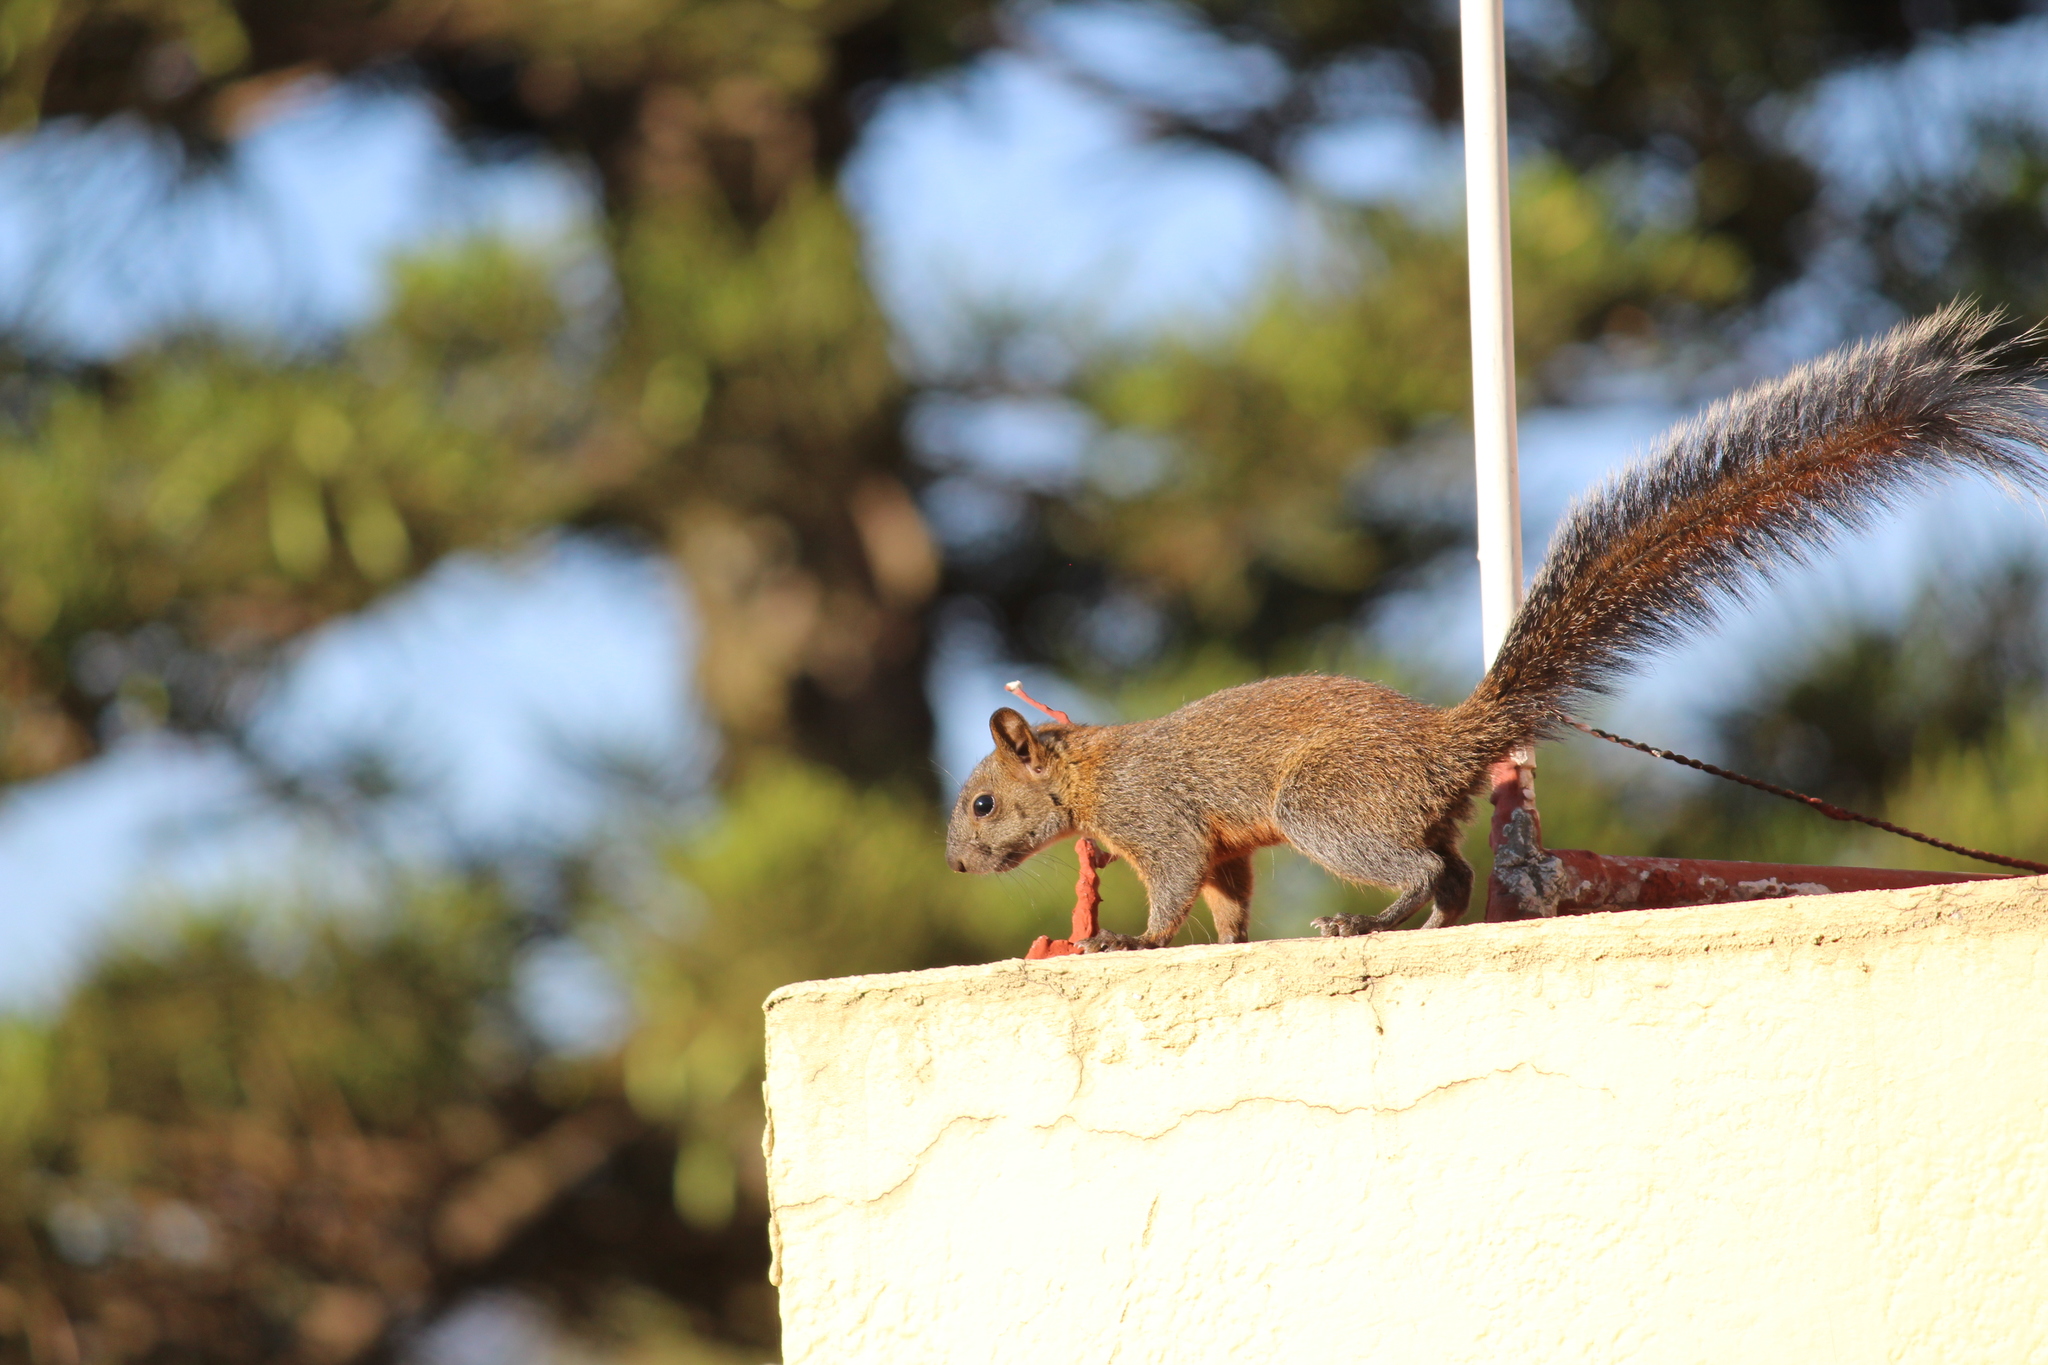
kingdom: Animalia
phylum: Chordata
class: Mammalia
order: Rodentia
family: Sciuridae
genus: Sciurus
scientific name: Sciurus aureogaster
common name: Red-bellied squirrel
